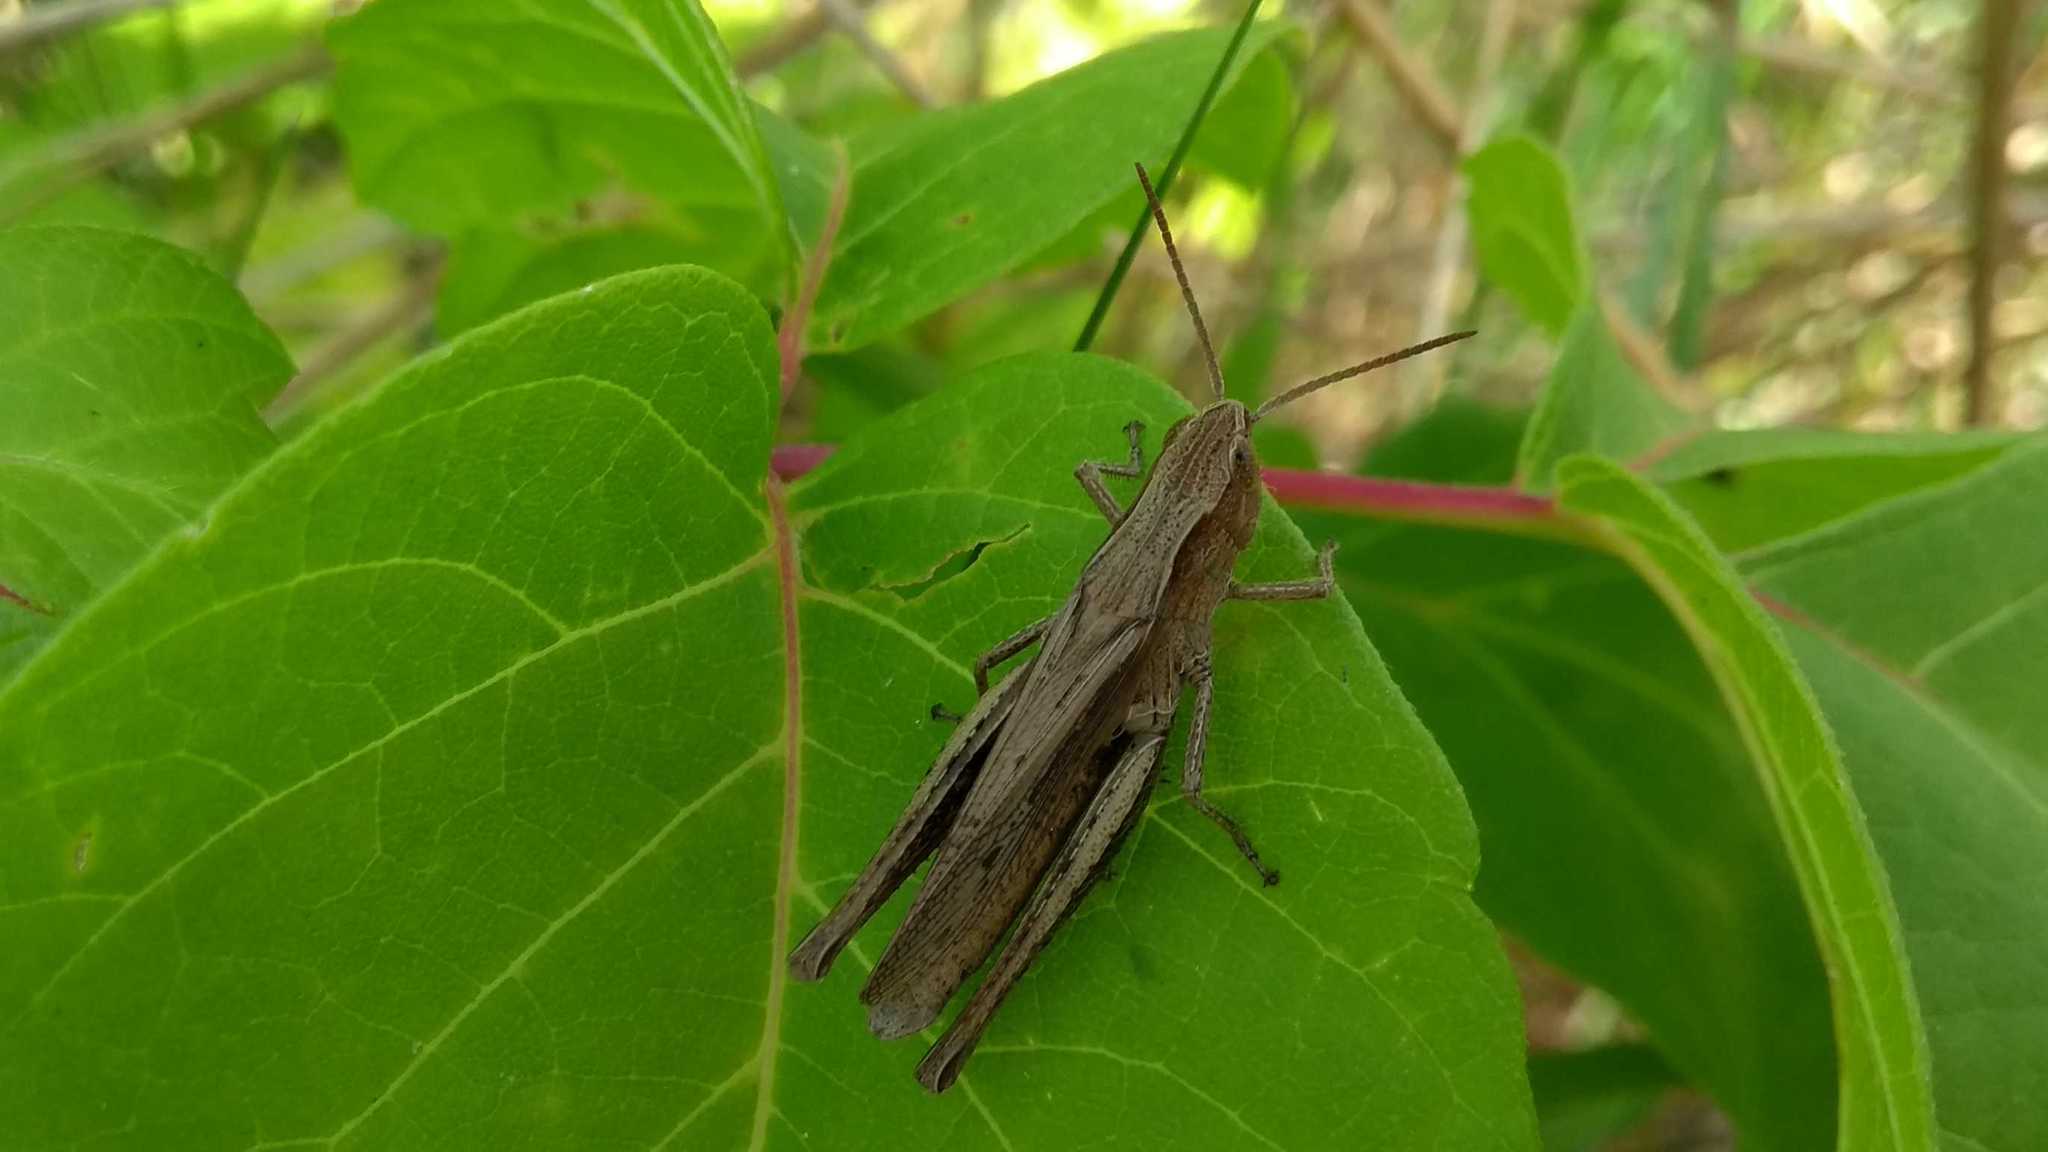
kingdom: Animalia
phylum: Arthropoda
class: Insecta
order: Orthoptera
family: Acrididae
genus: Chorthippus
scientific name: Chorthippus dorsatus
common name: Steppe grasshopper
